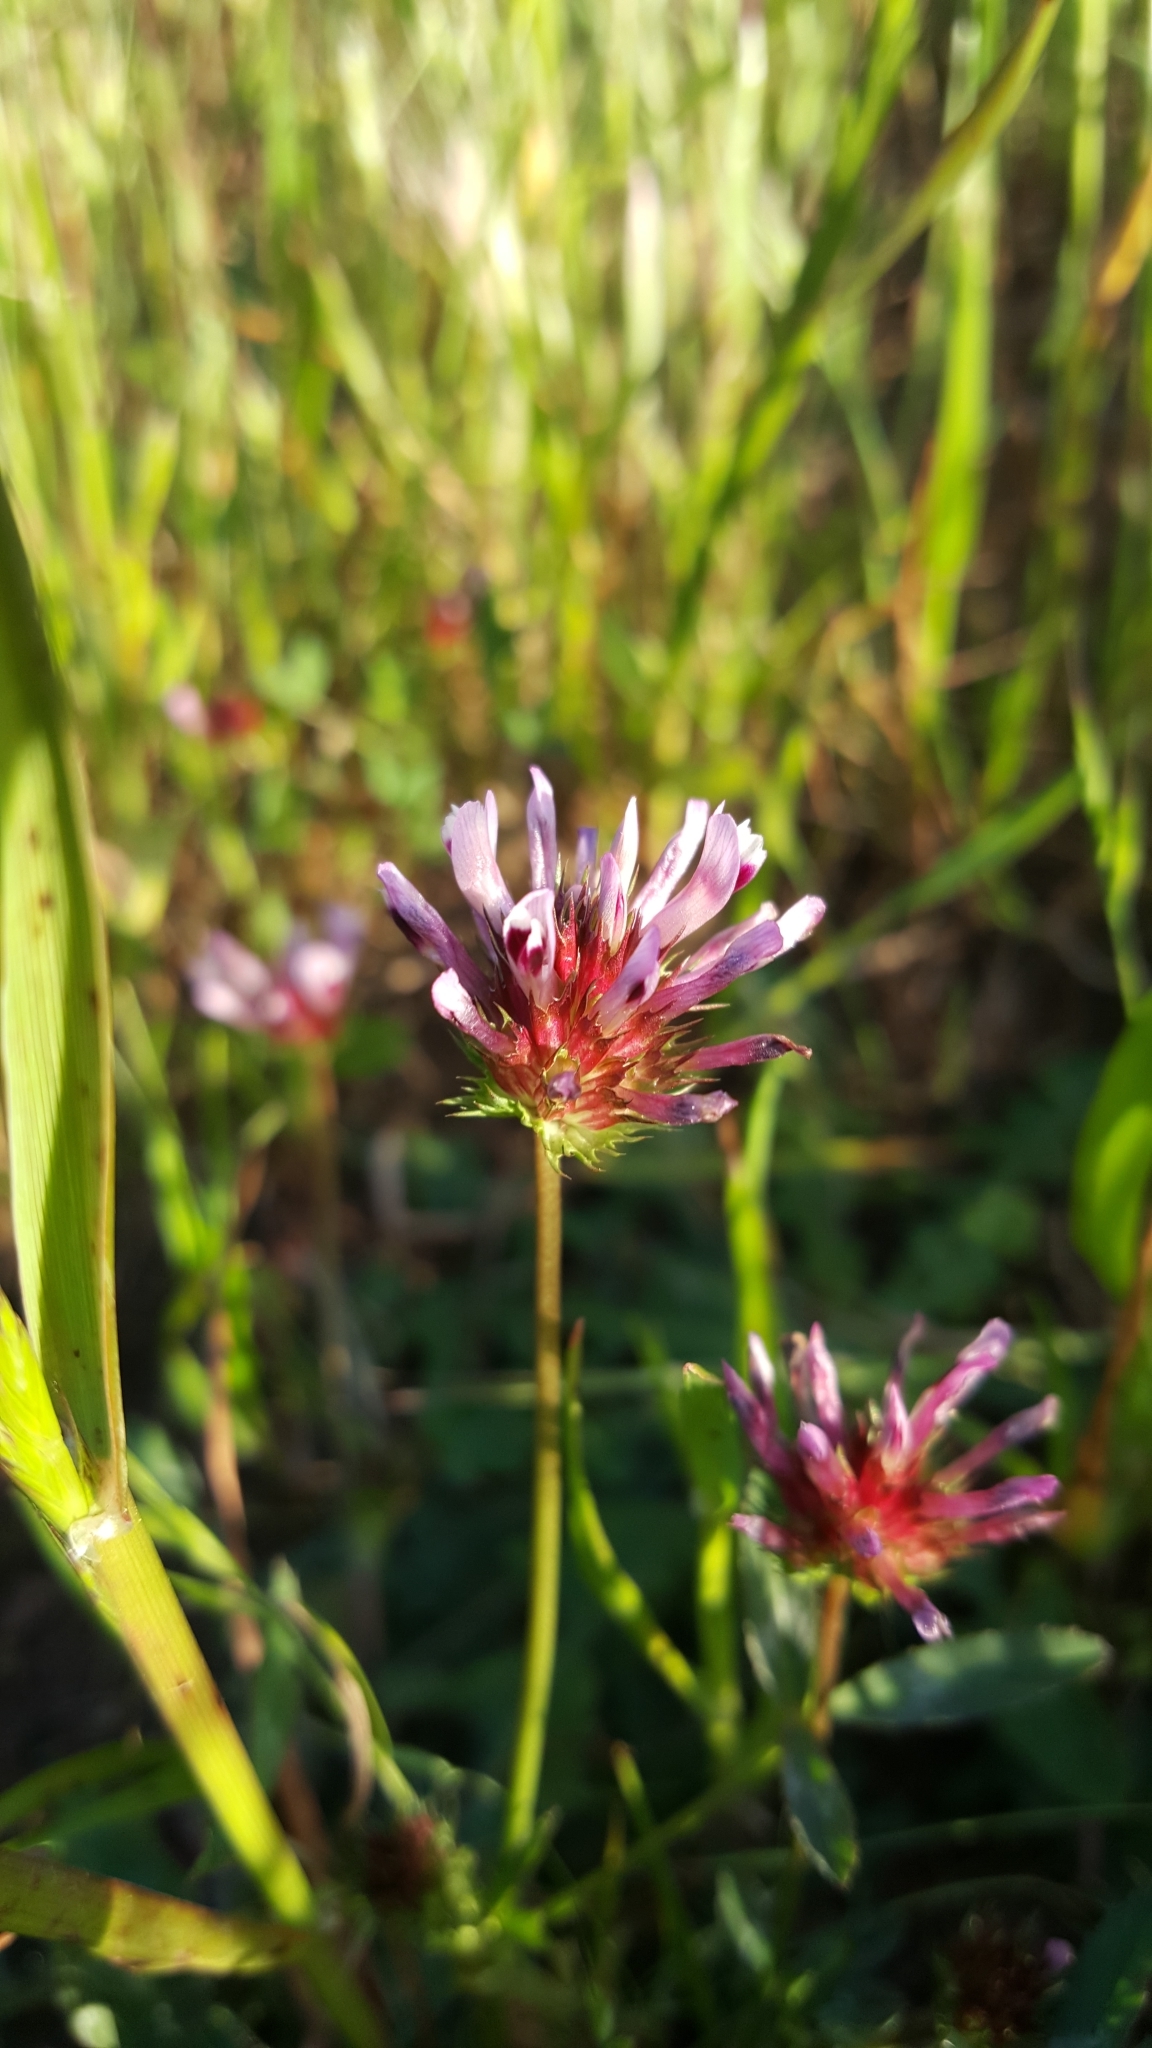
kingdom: Plantae
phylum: Tracheophyta
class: Magnoliopsida
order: Fabales
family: Fabaceae
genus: Trifolium
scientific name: Trifolium willdenovii
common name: Tomcat clover
